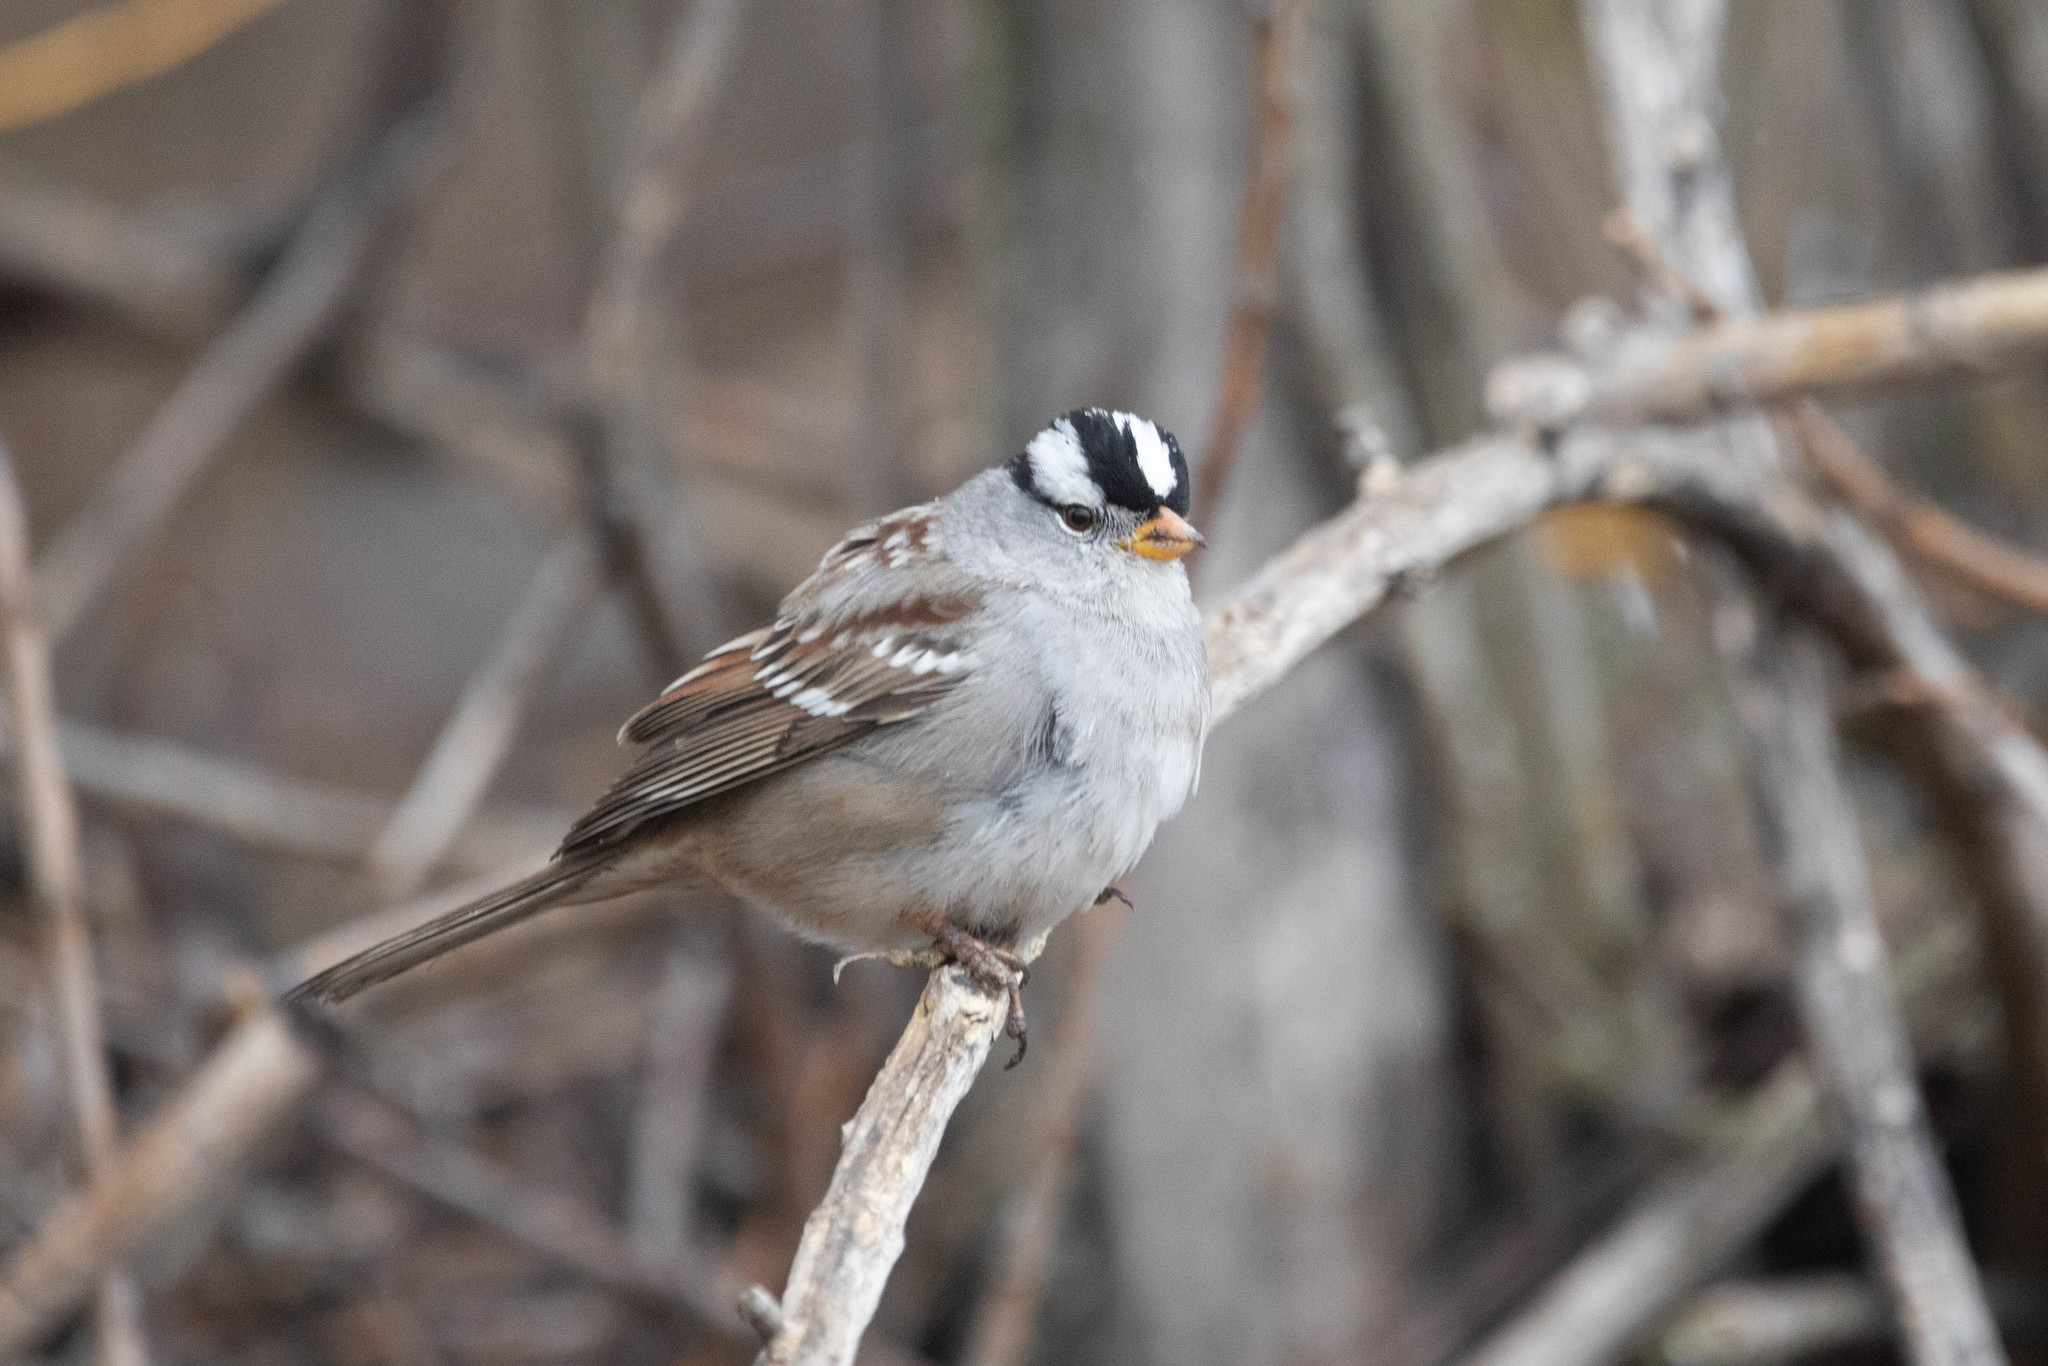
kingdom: Animalia
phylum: Chordata
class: Aves
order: Passeriformes
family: Passerellidae
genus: Zonotrichia
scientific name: Zonotrichia leucophrys
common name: White-crowned sparrow
